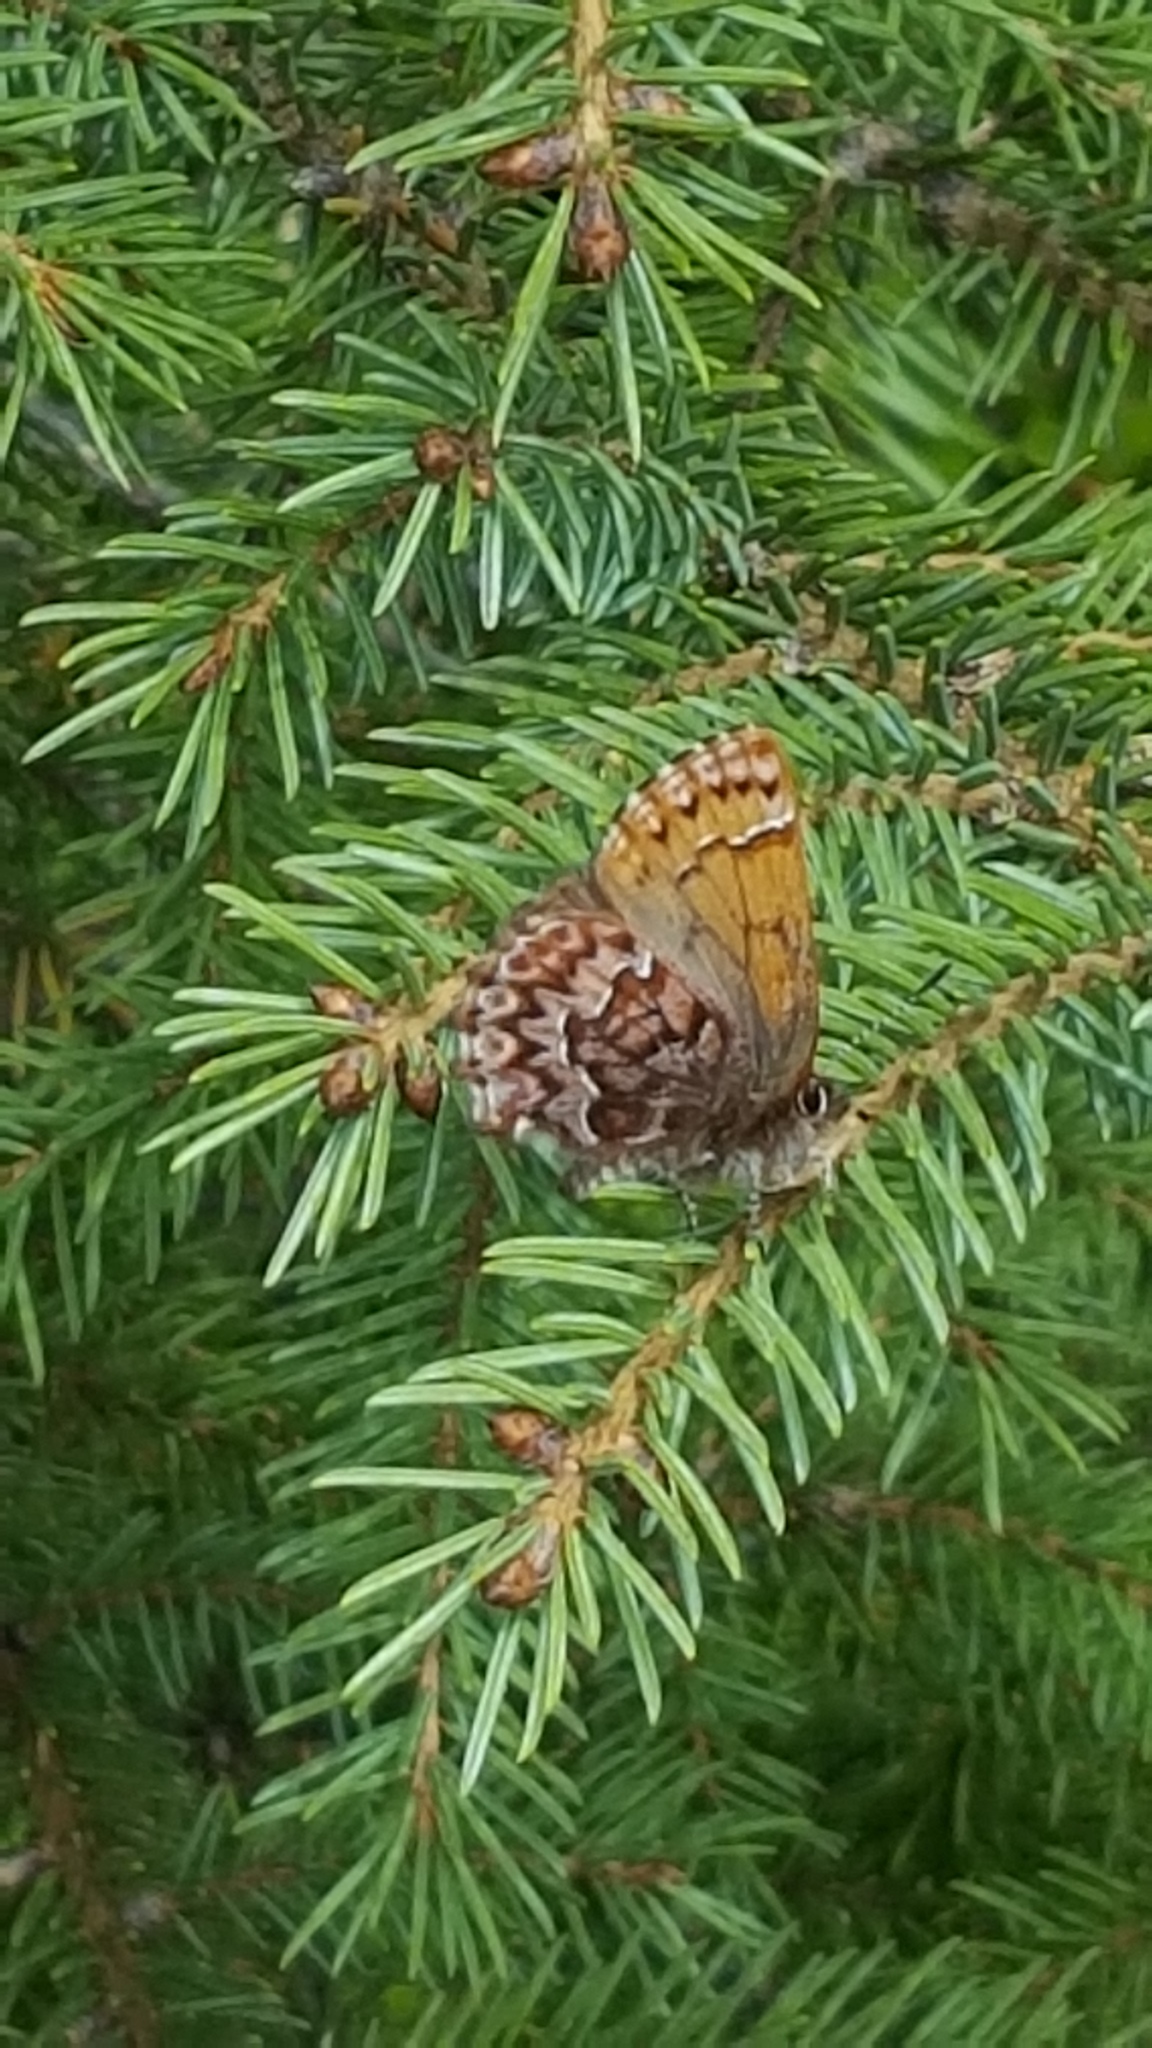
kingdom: Animalia
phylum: Arthropoda
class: Insecta
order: Lepidoptera
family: Lycaenidae
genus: Incisalia
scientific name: Incisalia eryphon
